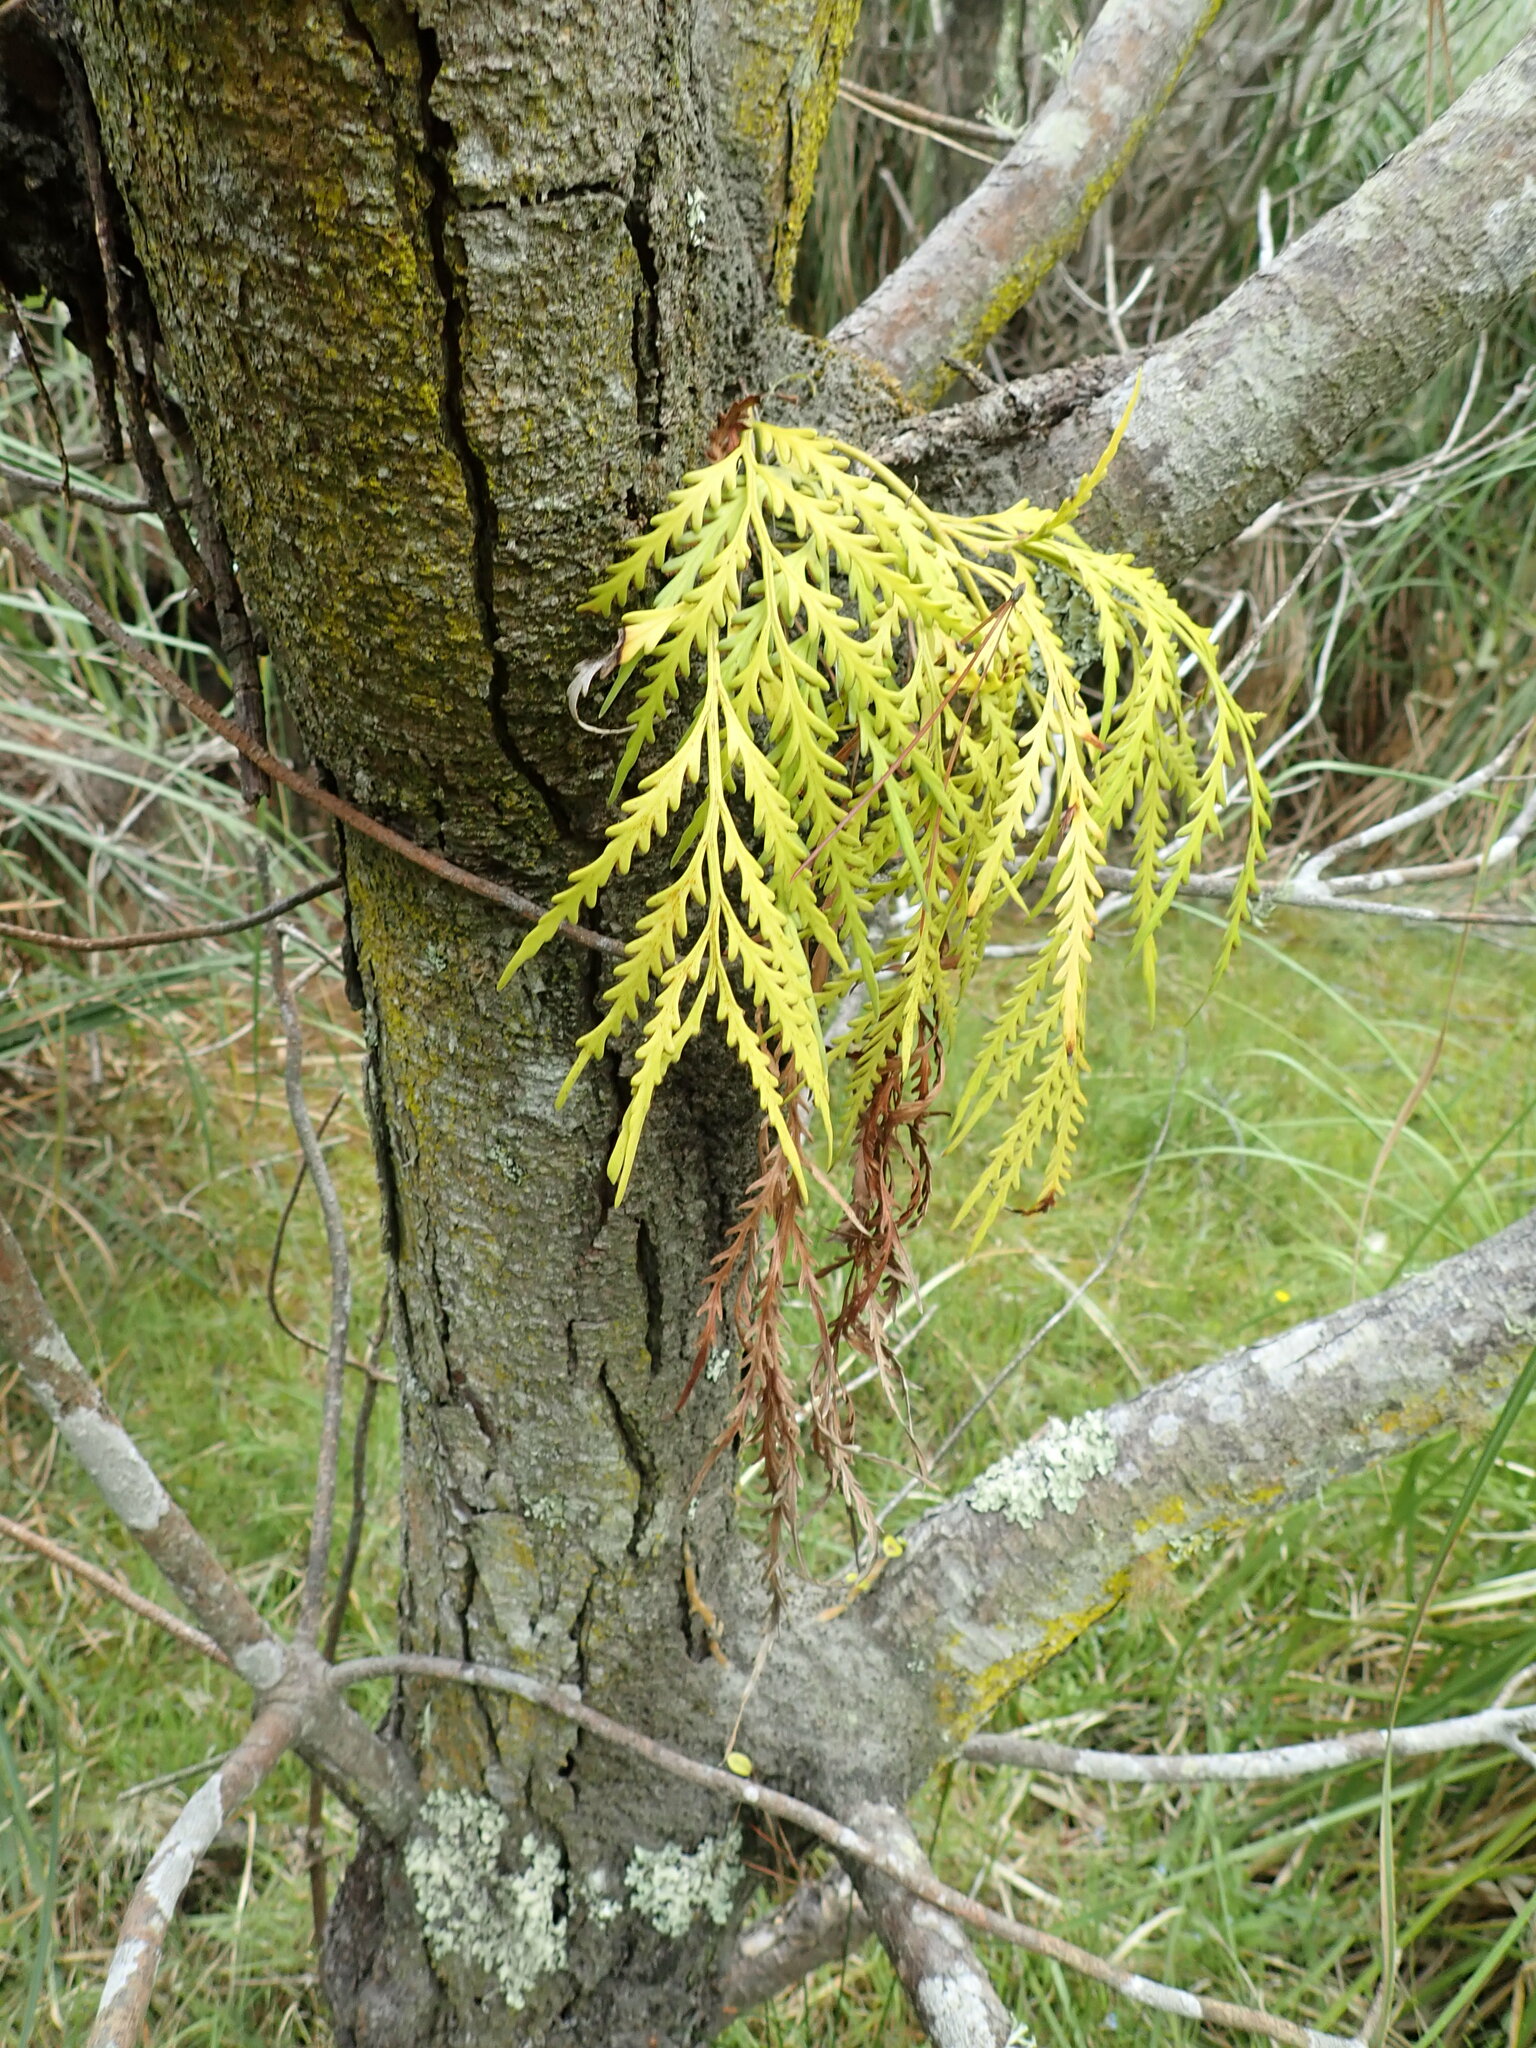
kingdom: Plantae
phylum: Tracheophyta
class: Polypodiopsida
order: Polypodiales
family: Aspleniaceae
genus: Asplenium
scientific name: Asplenium flaccidum
